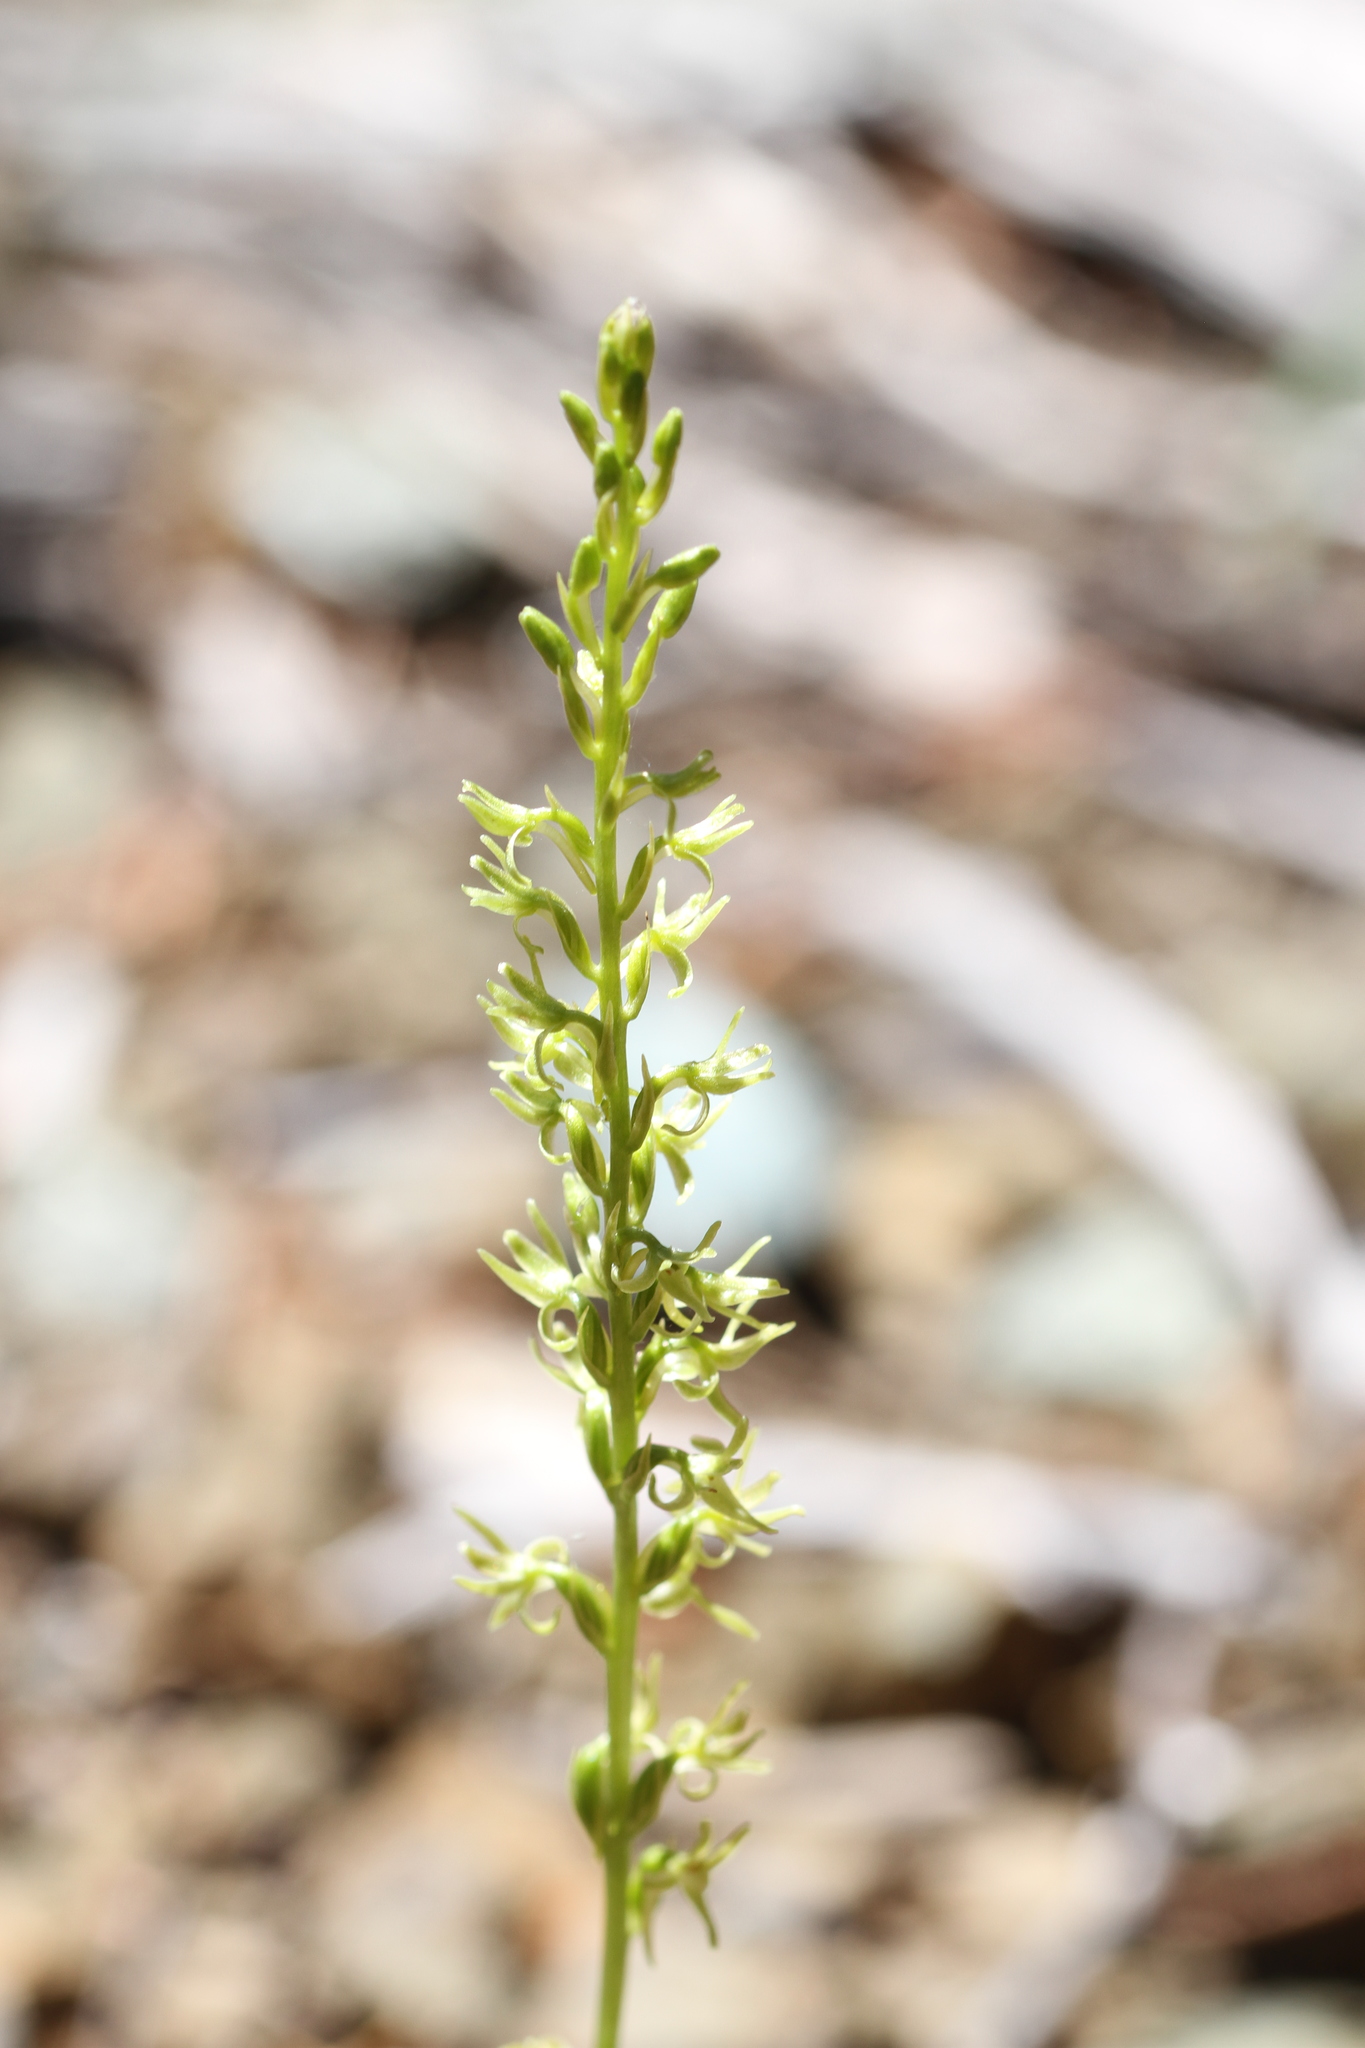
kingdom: Plantae
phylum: Tracheophyta
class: Liliopsida
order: Asparagales
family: Orchidaceae
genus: Platanthera
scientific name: Platanthera leptopetala
